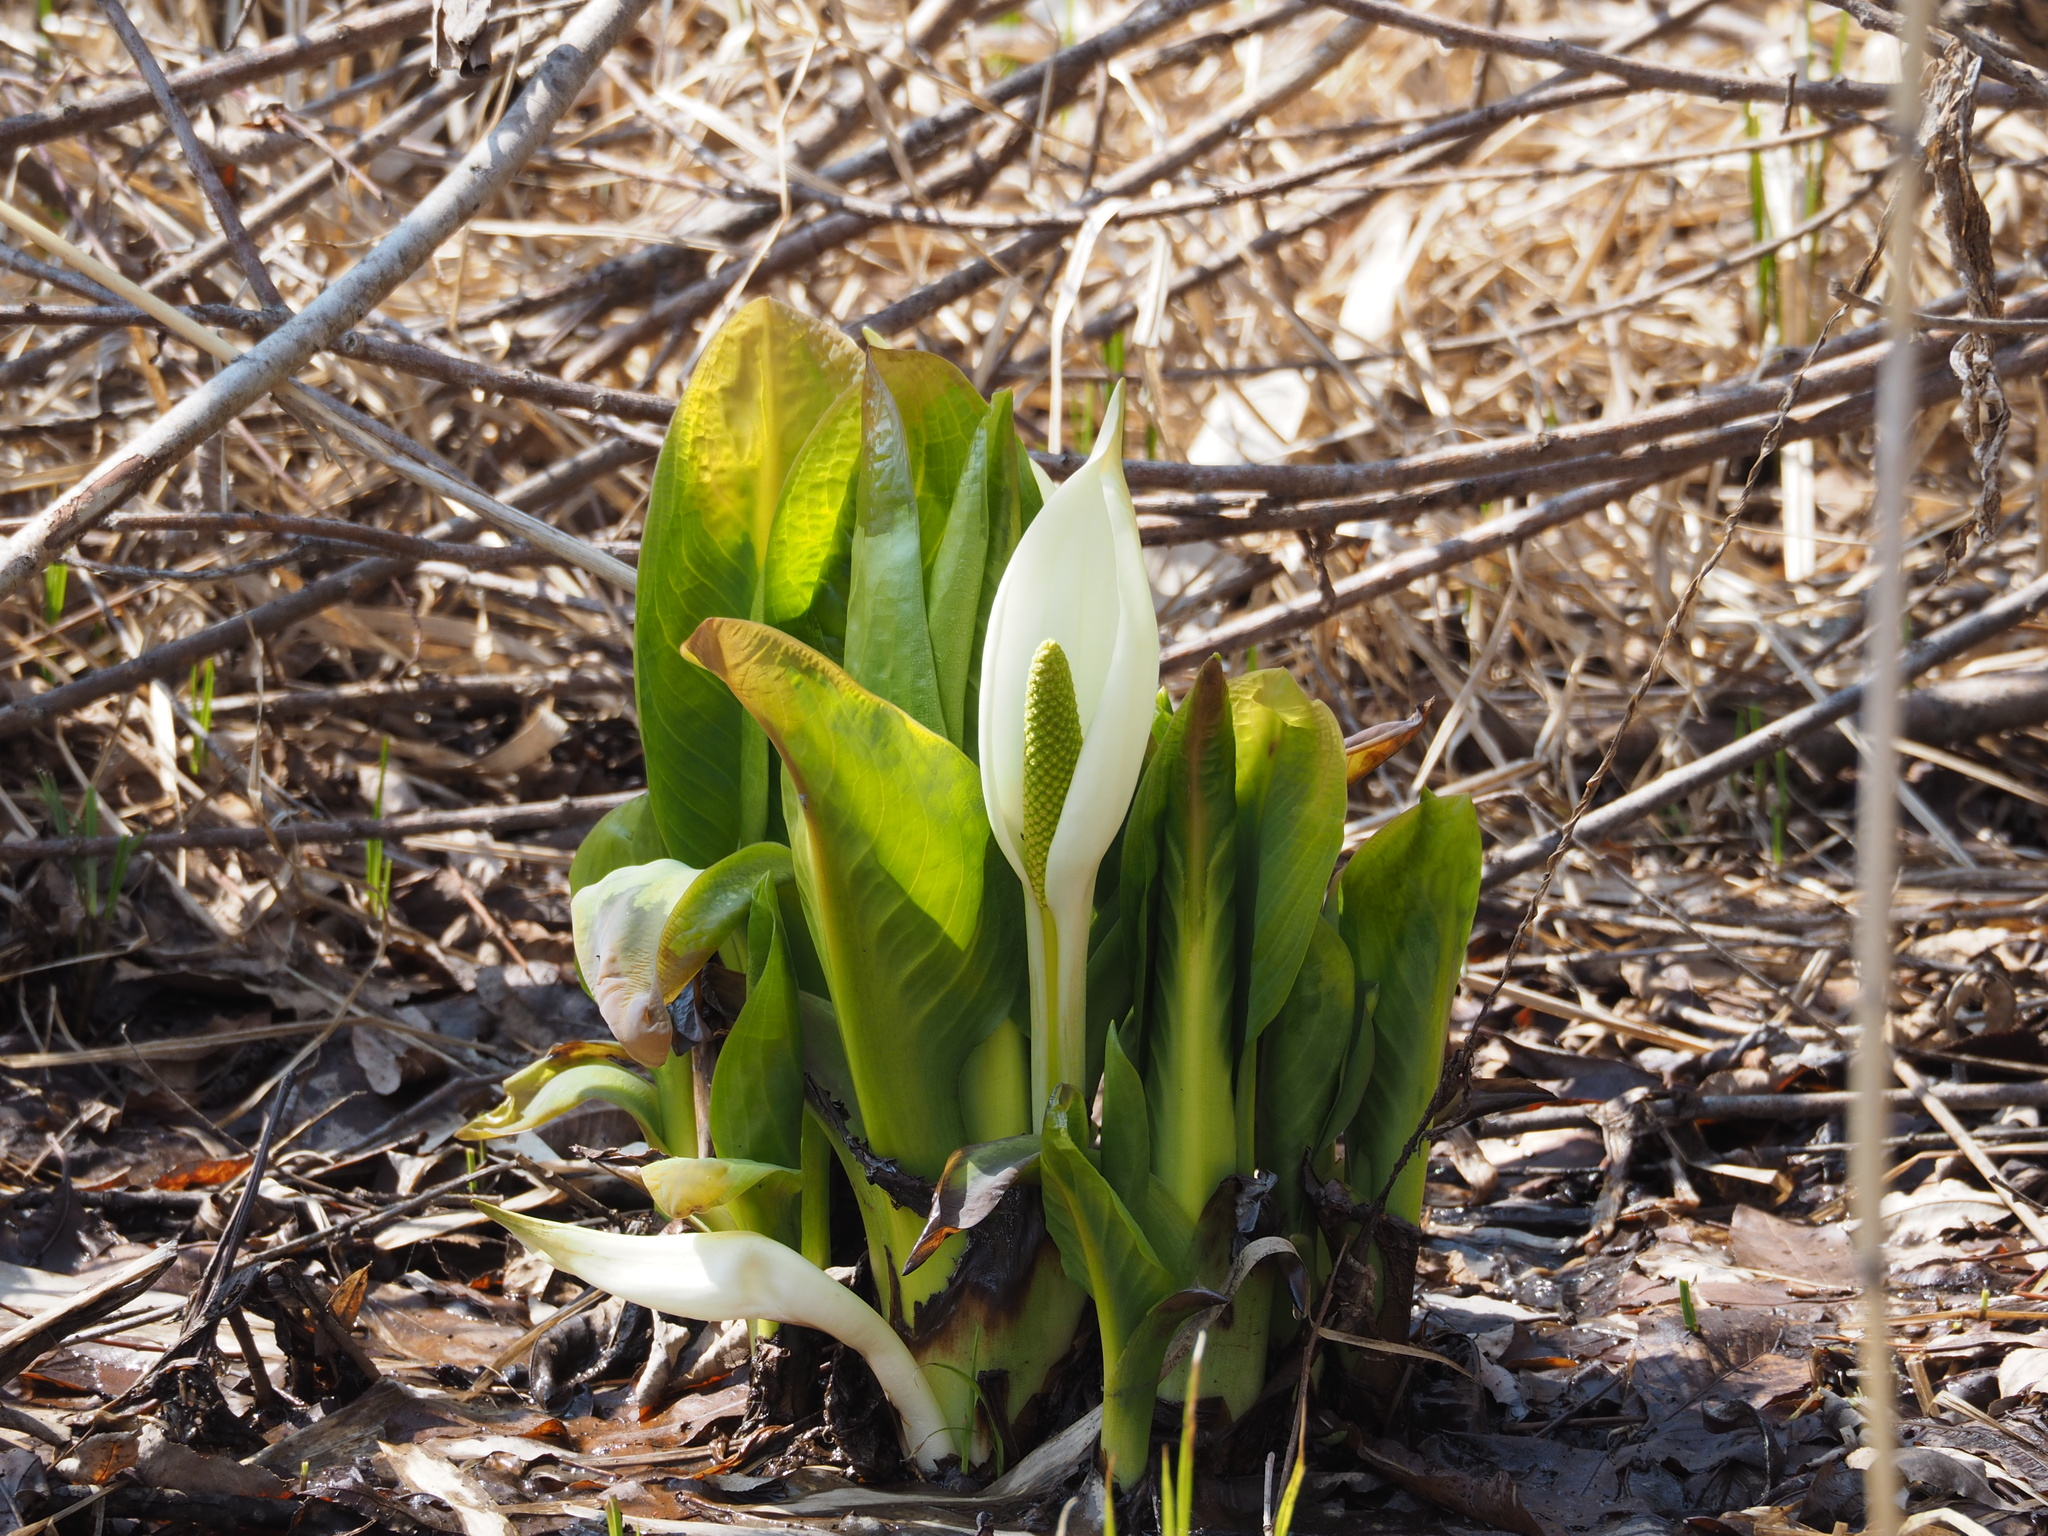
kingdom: Plantae
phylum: Tracheophyta
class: Liliopsida
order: Alismatales
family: Araceae
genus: Lysichiton
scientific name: Lysichiton camtschatcensis
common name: Asian skunk-cabbage
